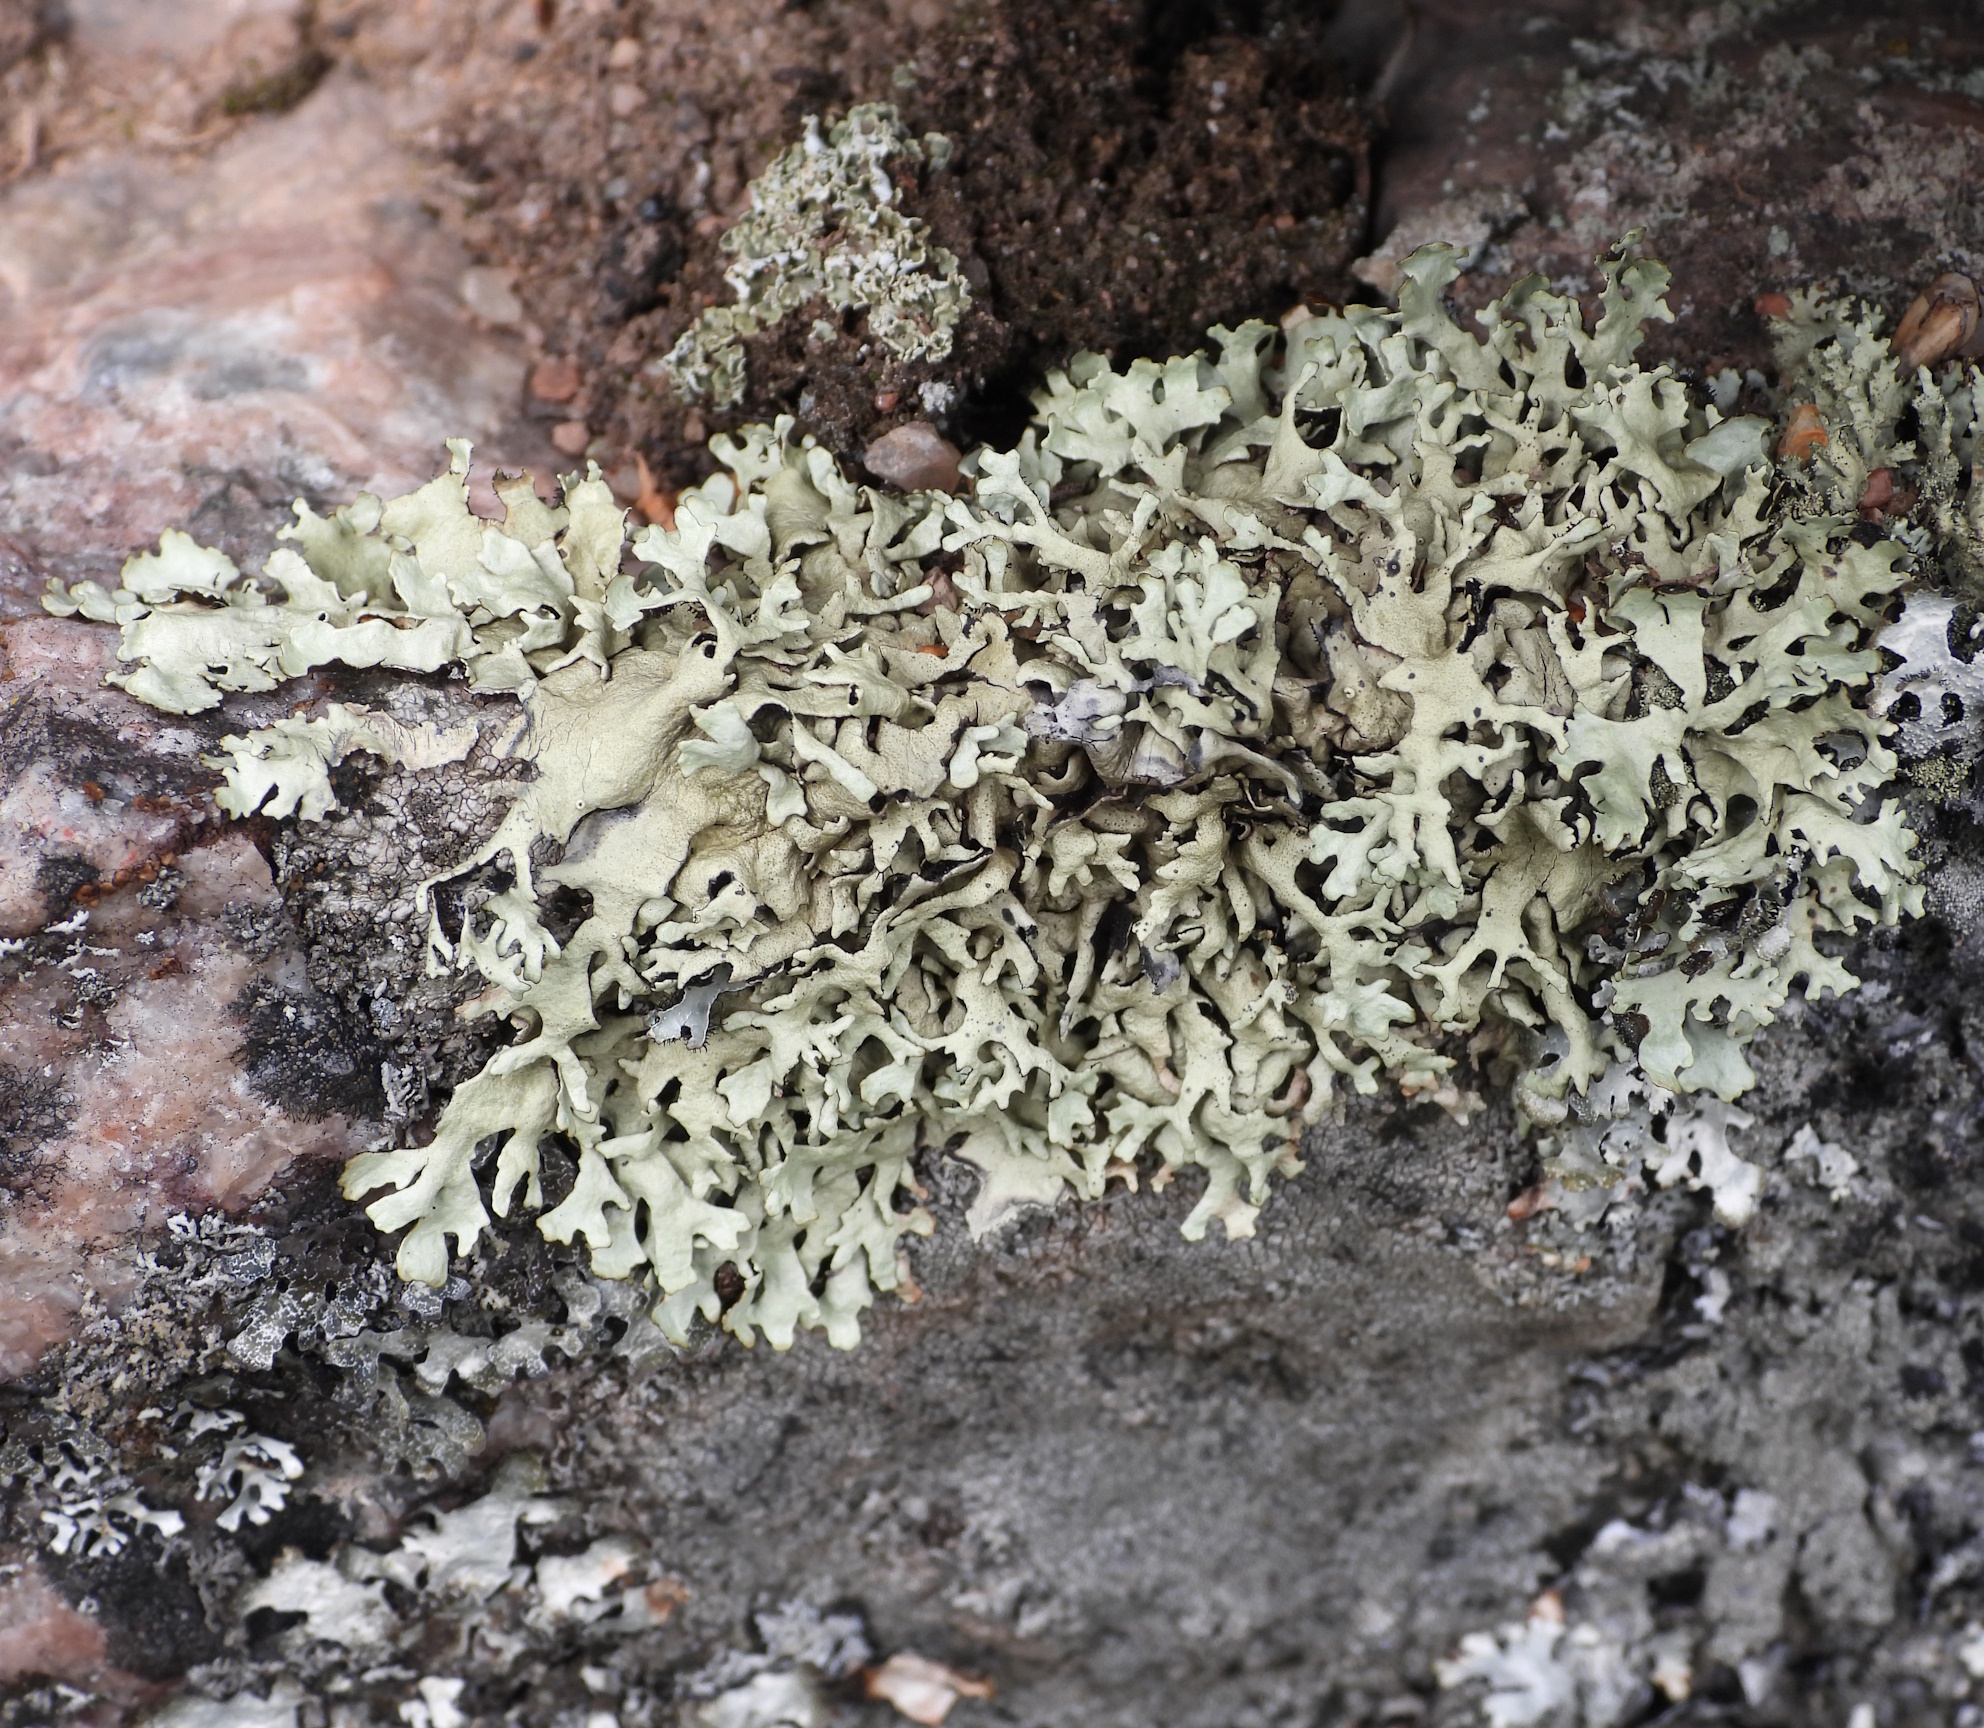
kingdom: Fungi
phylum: Ascomycota
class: Lecanoromycetes
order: Lecanorales
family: Parmeliaceae
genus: Xanthoparmelia
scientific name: Xanthoparmelia stenophylla
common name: Shingled rock shield
